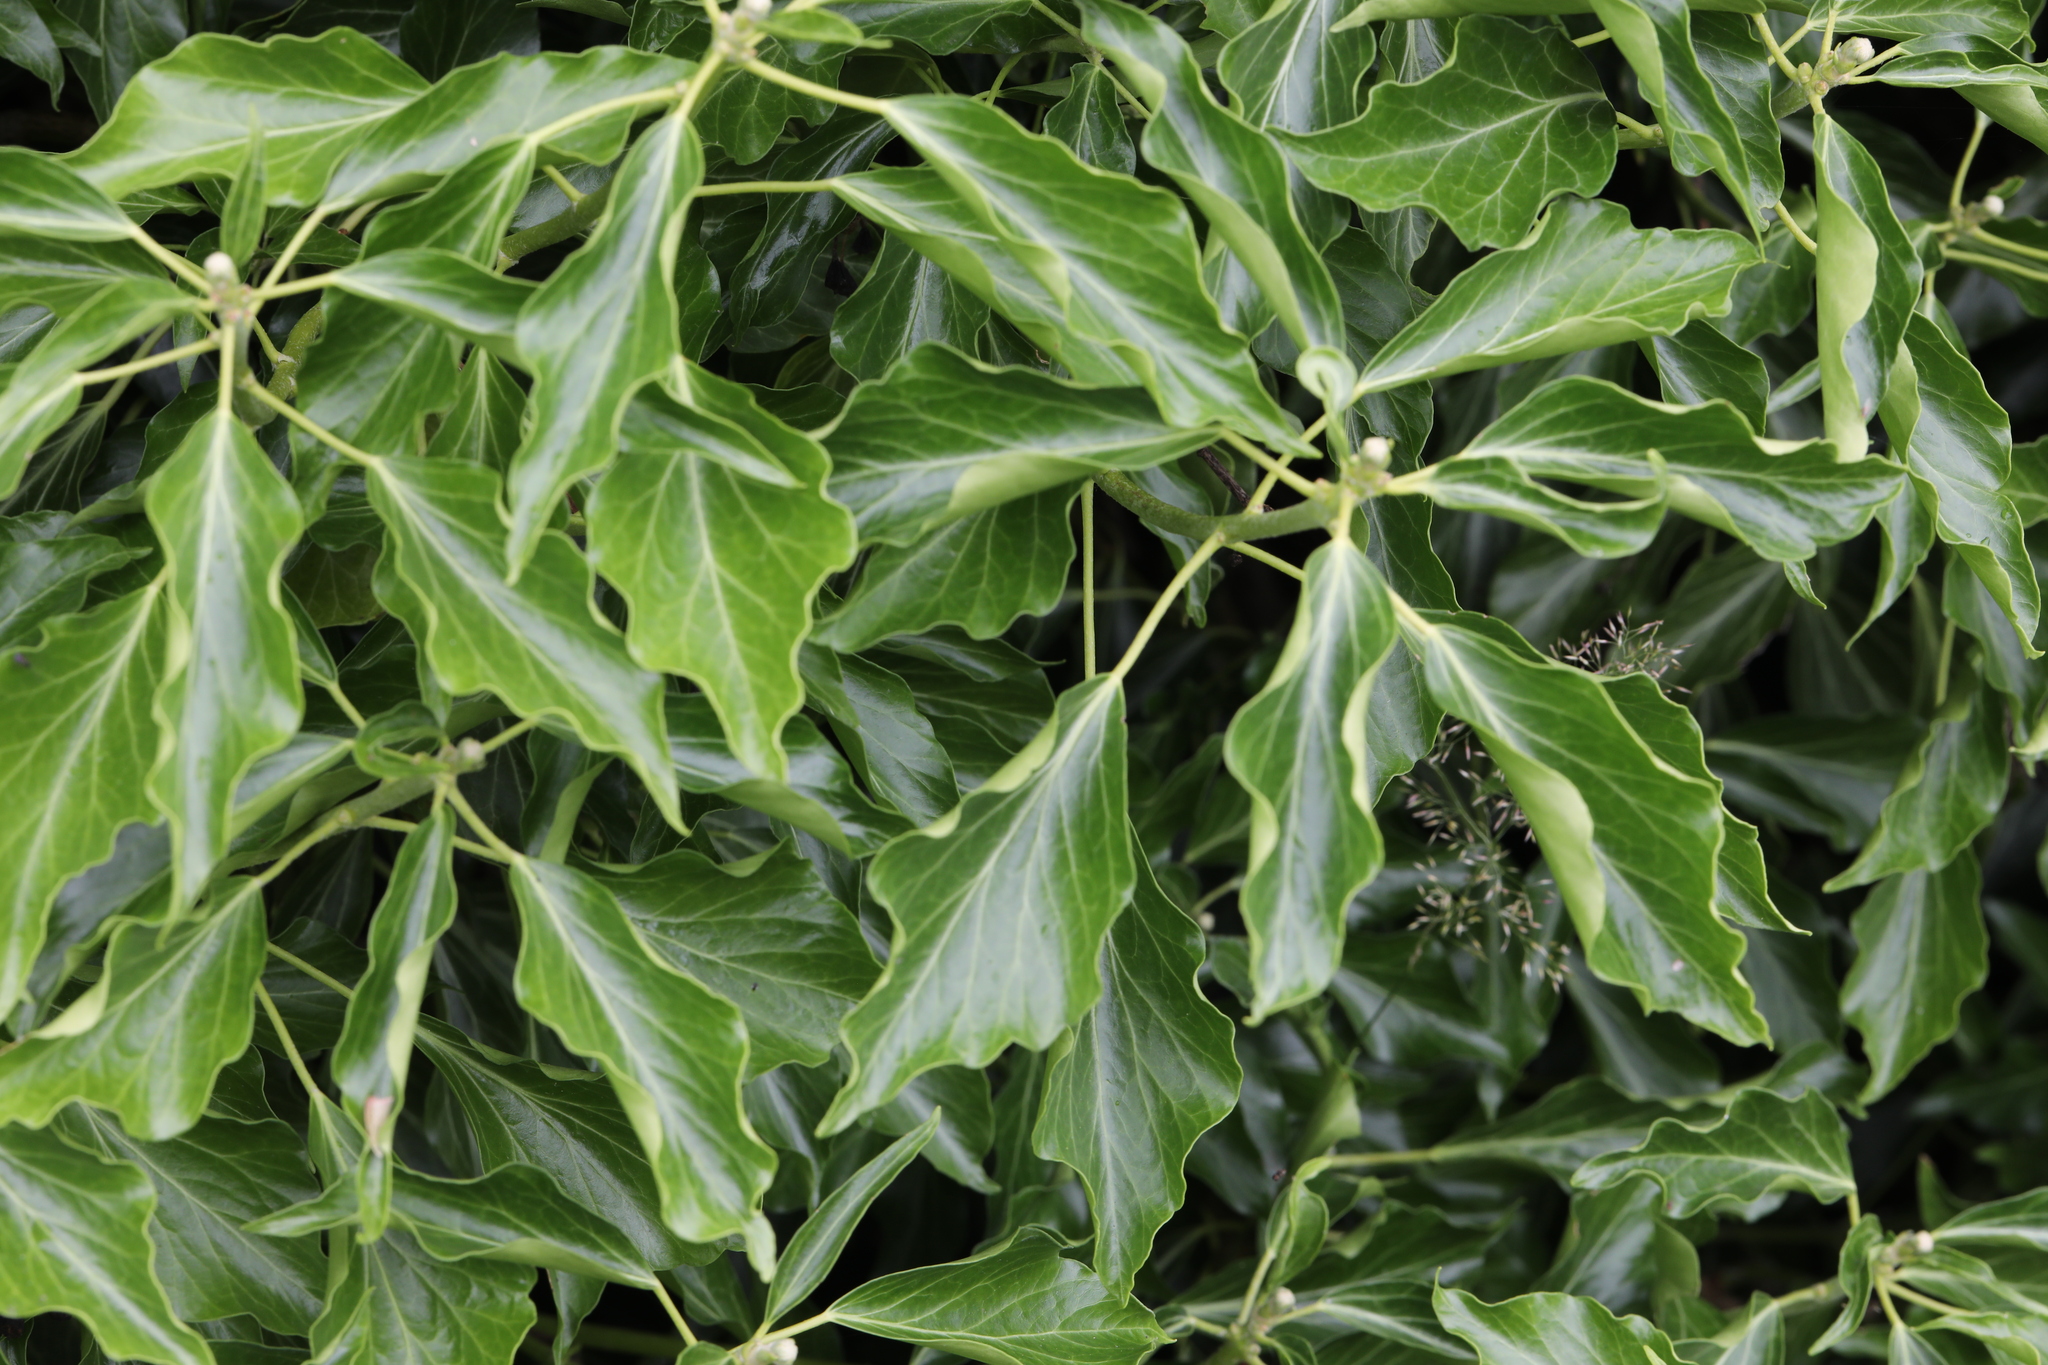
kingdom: Plantae
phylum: Tracheophyta
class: Magnoliopsida
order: Apiales
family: Araliaceae
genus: Hedera
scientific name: Hedera helix
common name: Ivy
